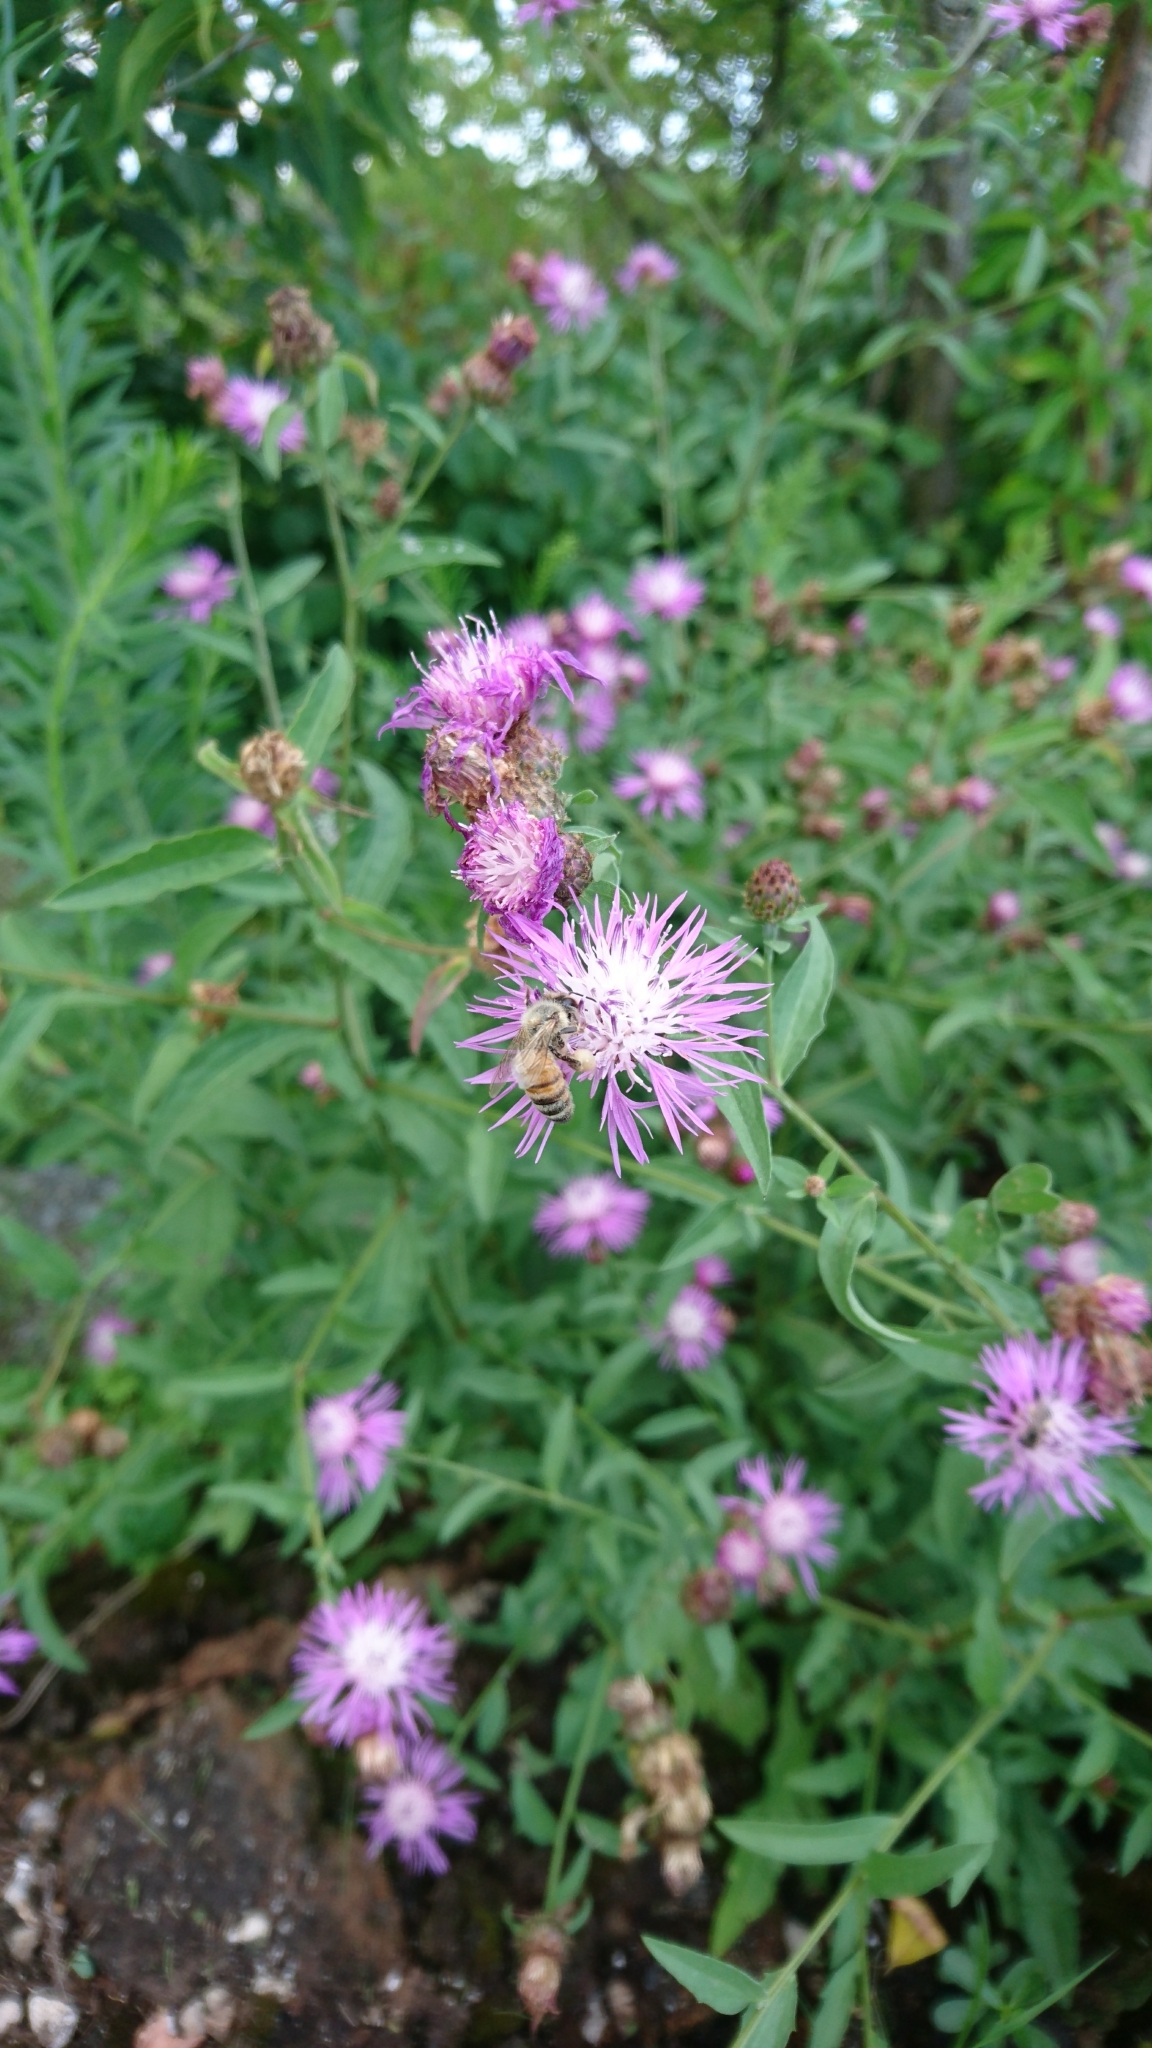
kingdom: Animalia
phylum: Arthropoda
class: Insecta
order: Hymenoptera
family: Apidae
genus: Apis
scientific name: Apis mellifera
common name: Honey bee
